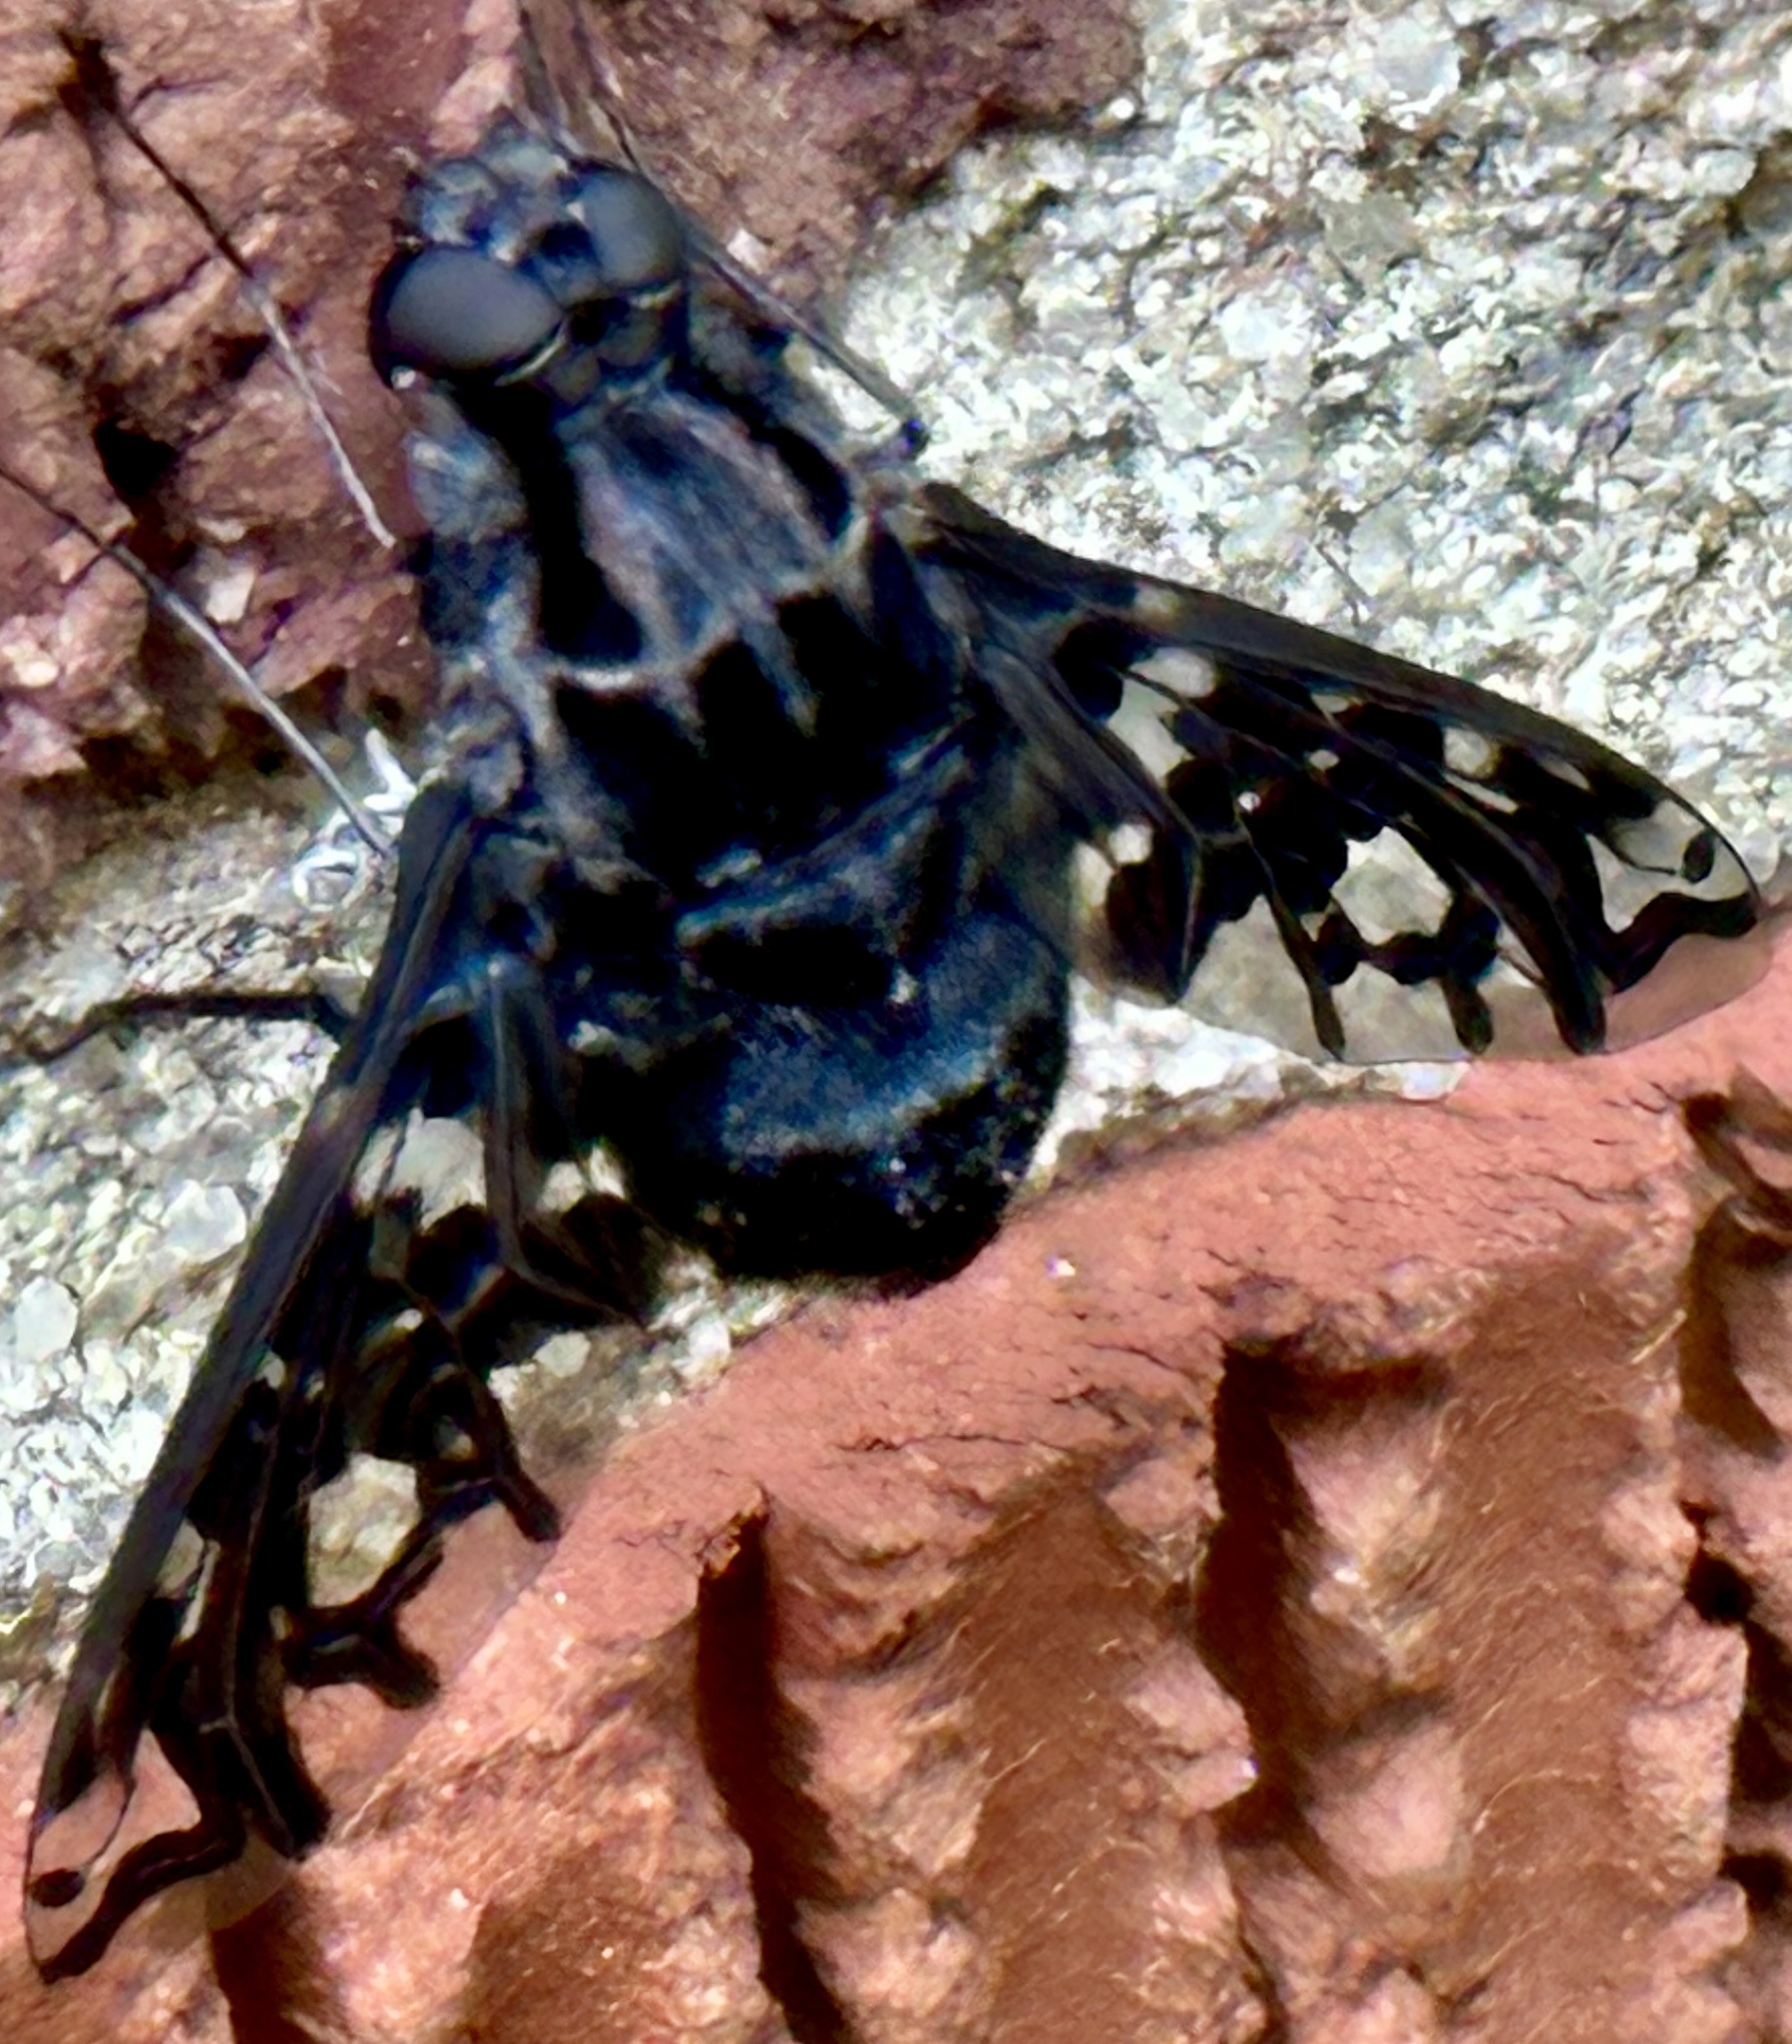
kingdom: Animalia
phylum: Arthropoda
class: Insecta
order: Diptera
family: Bombyliidae
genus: Xenox
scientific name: Xenox tigrinus
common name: Tiger bee fly
